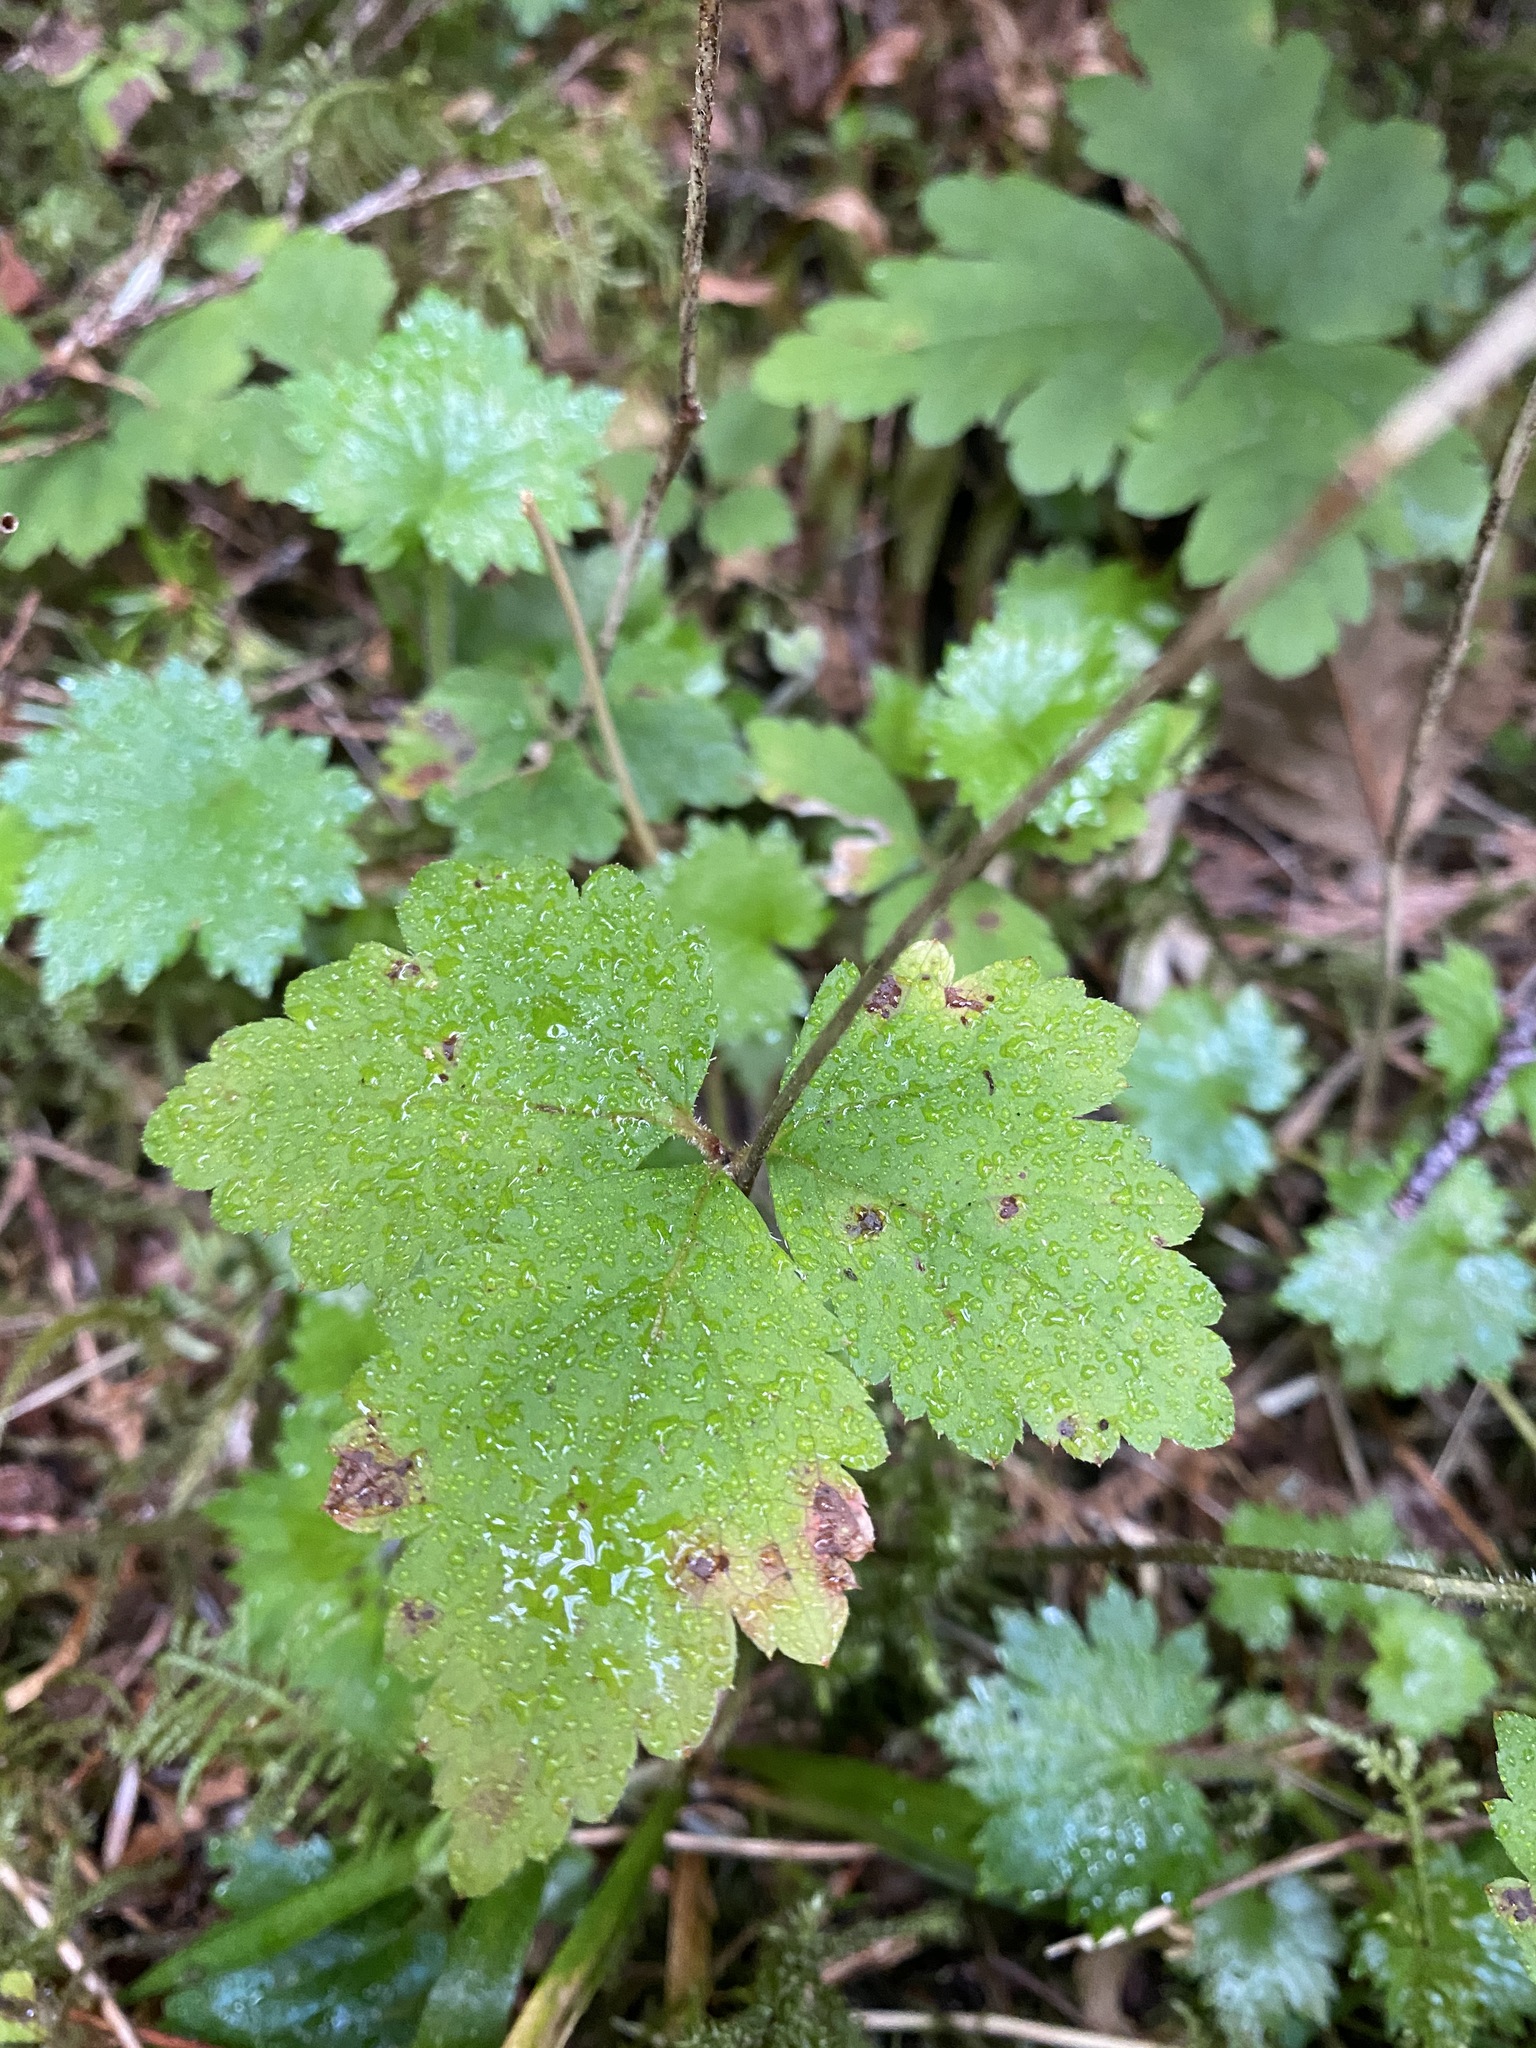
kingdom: Plantae
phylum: Tracheophyta
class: Magnoliopsida
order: Saxifragales
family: Saxifragaceae
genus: Tiarella
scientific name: Tiarella trifoliata
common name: Sugar-scoop
